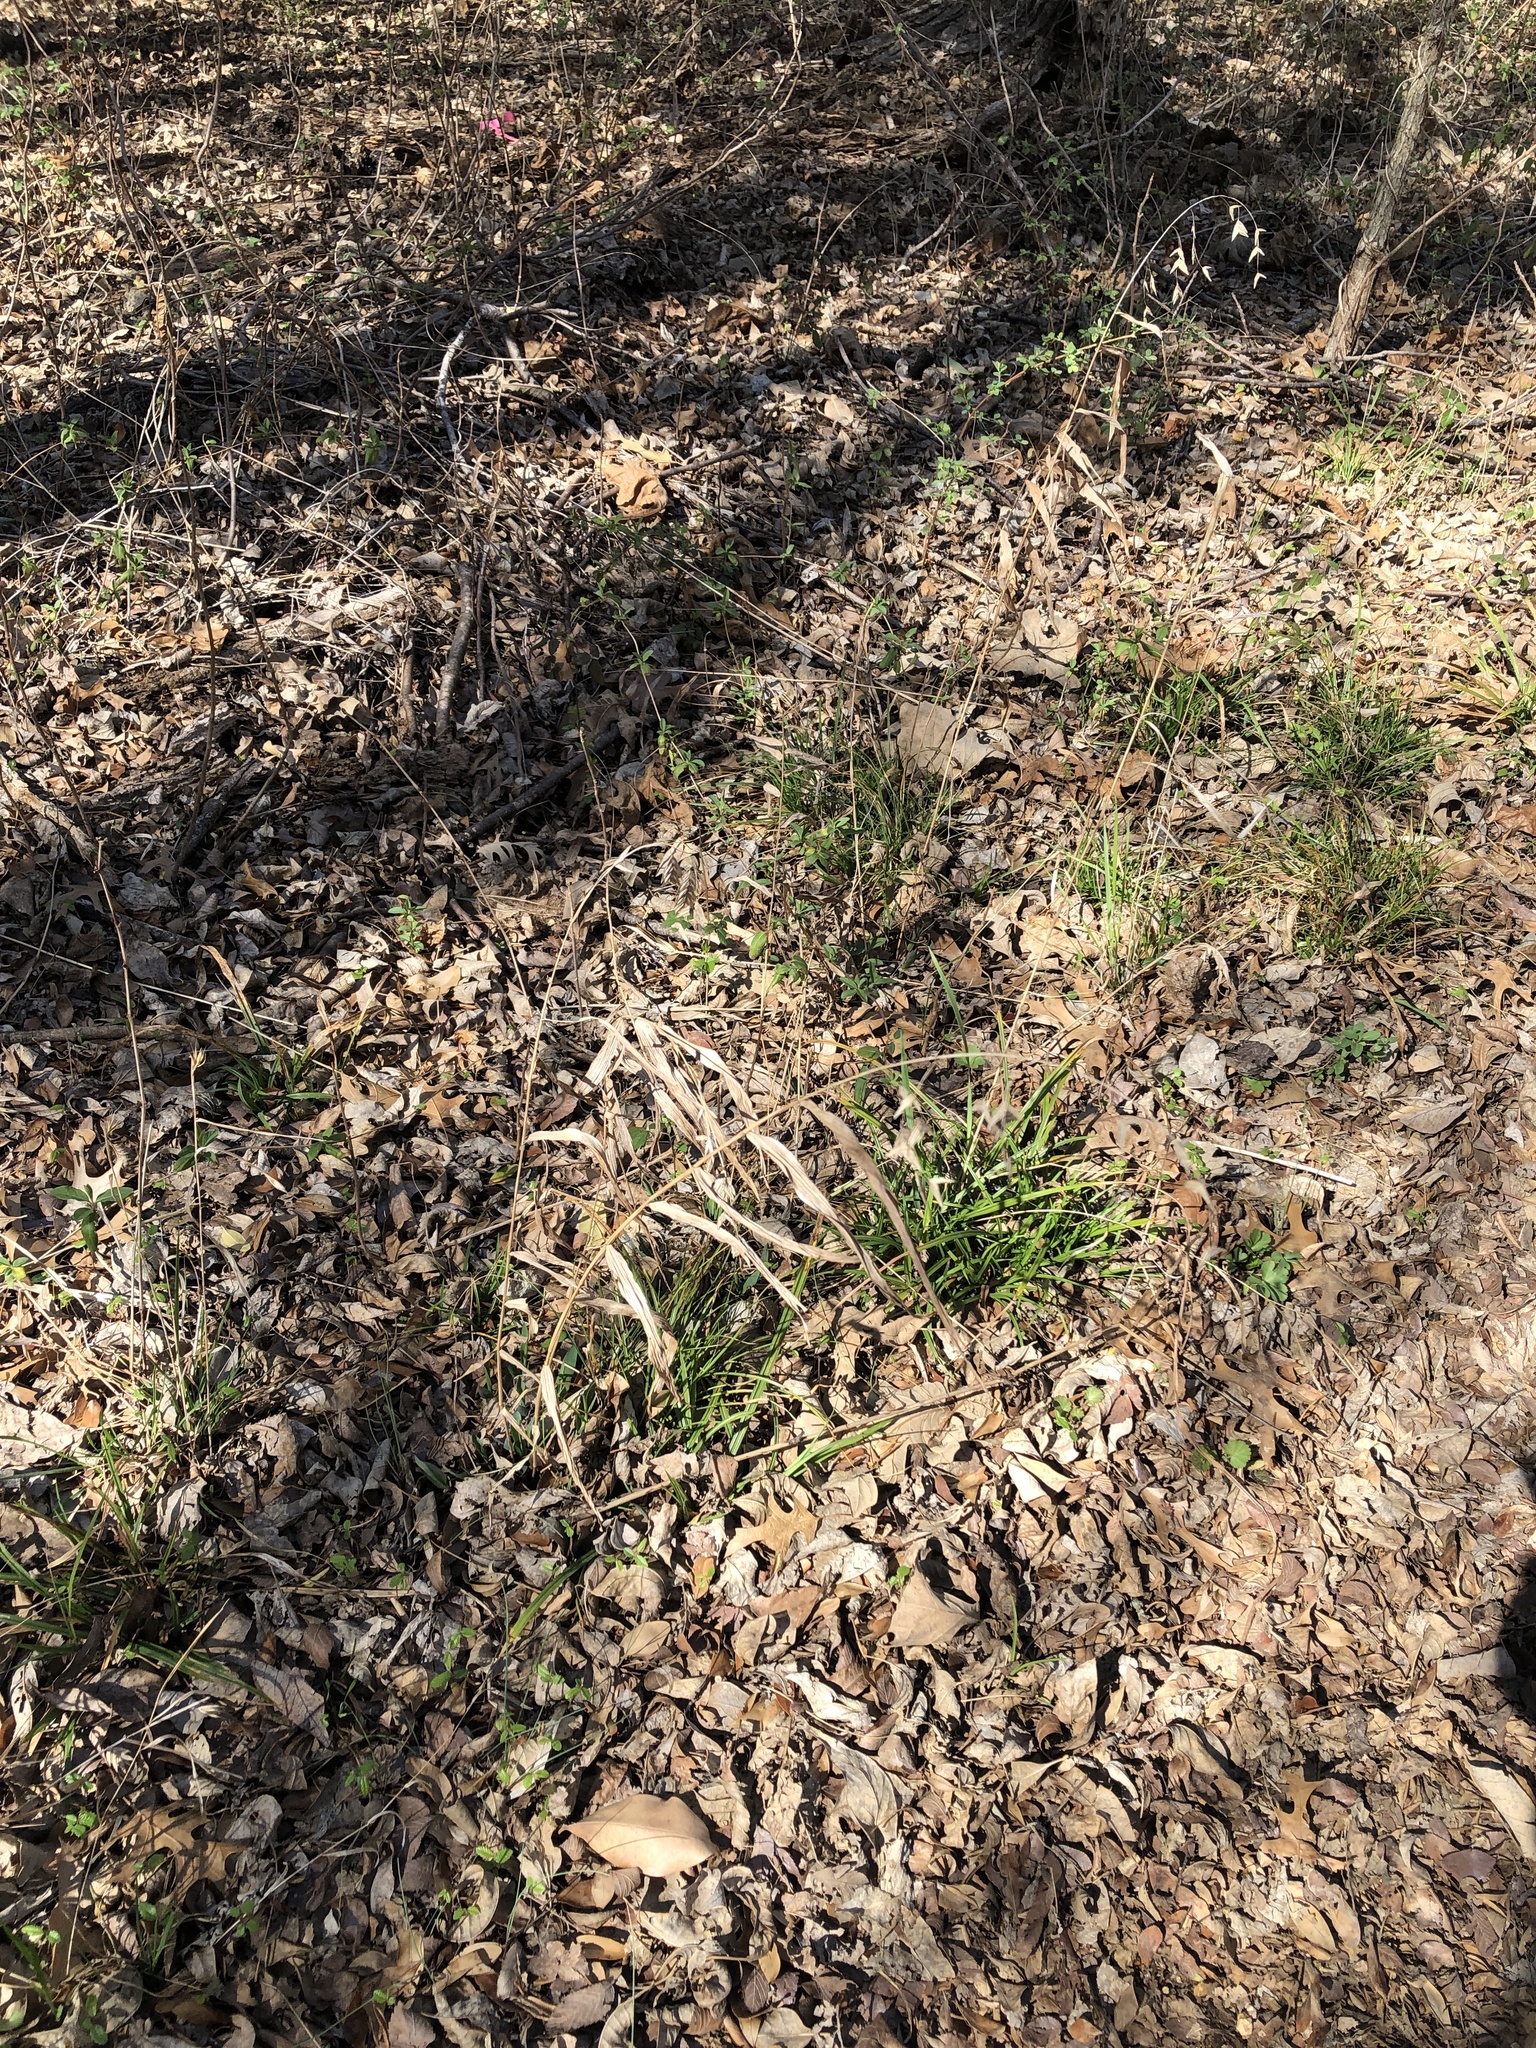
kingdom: Plantae
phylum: Tracheophyta
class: Liliopsida
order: Poales
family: Poaceae
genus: Chasmanthium
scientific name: Chasmanthium latifolium
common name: Broad-leaved chasmanthium
